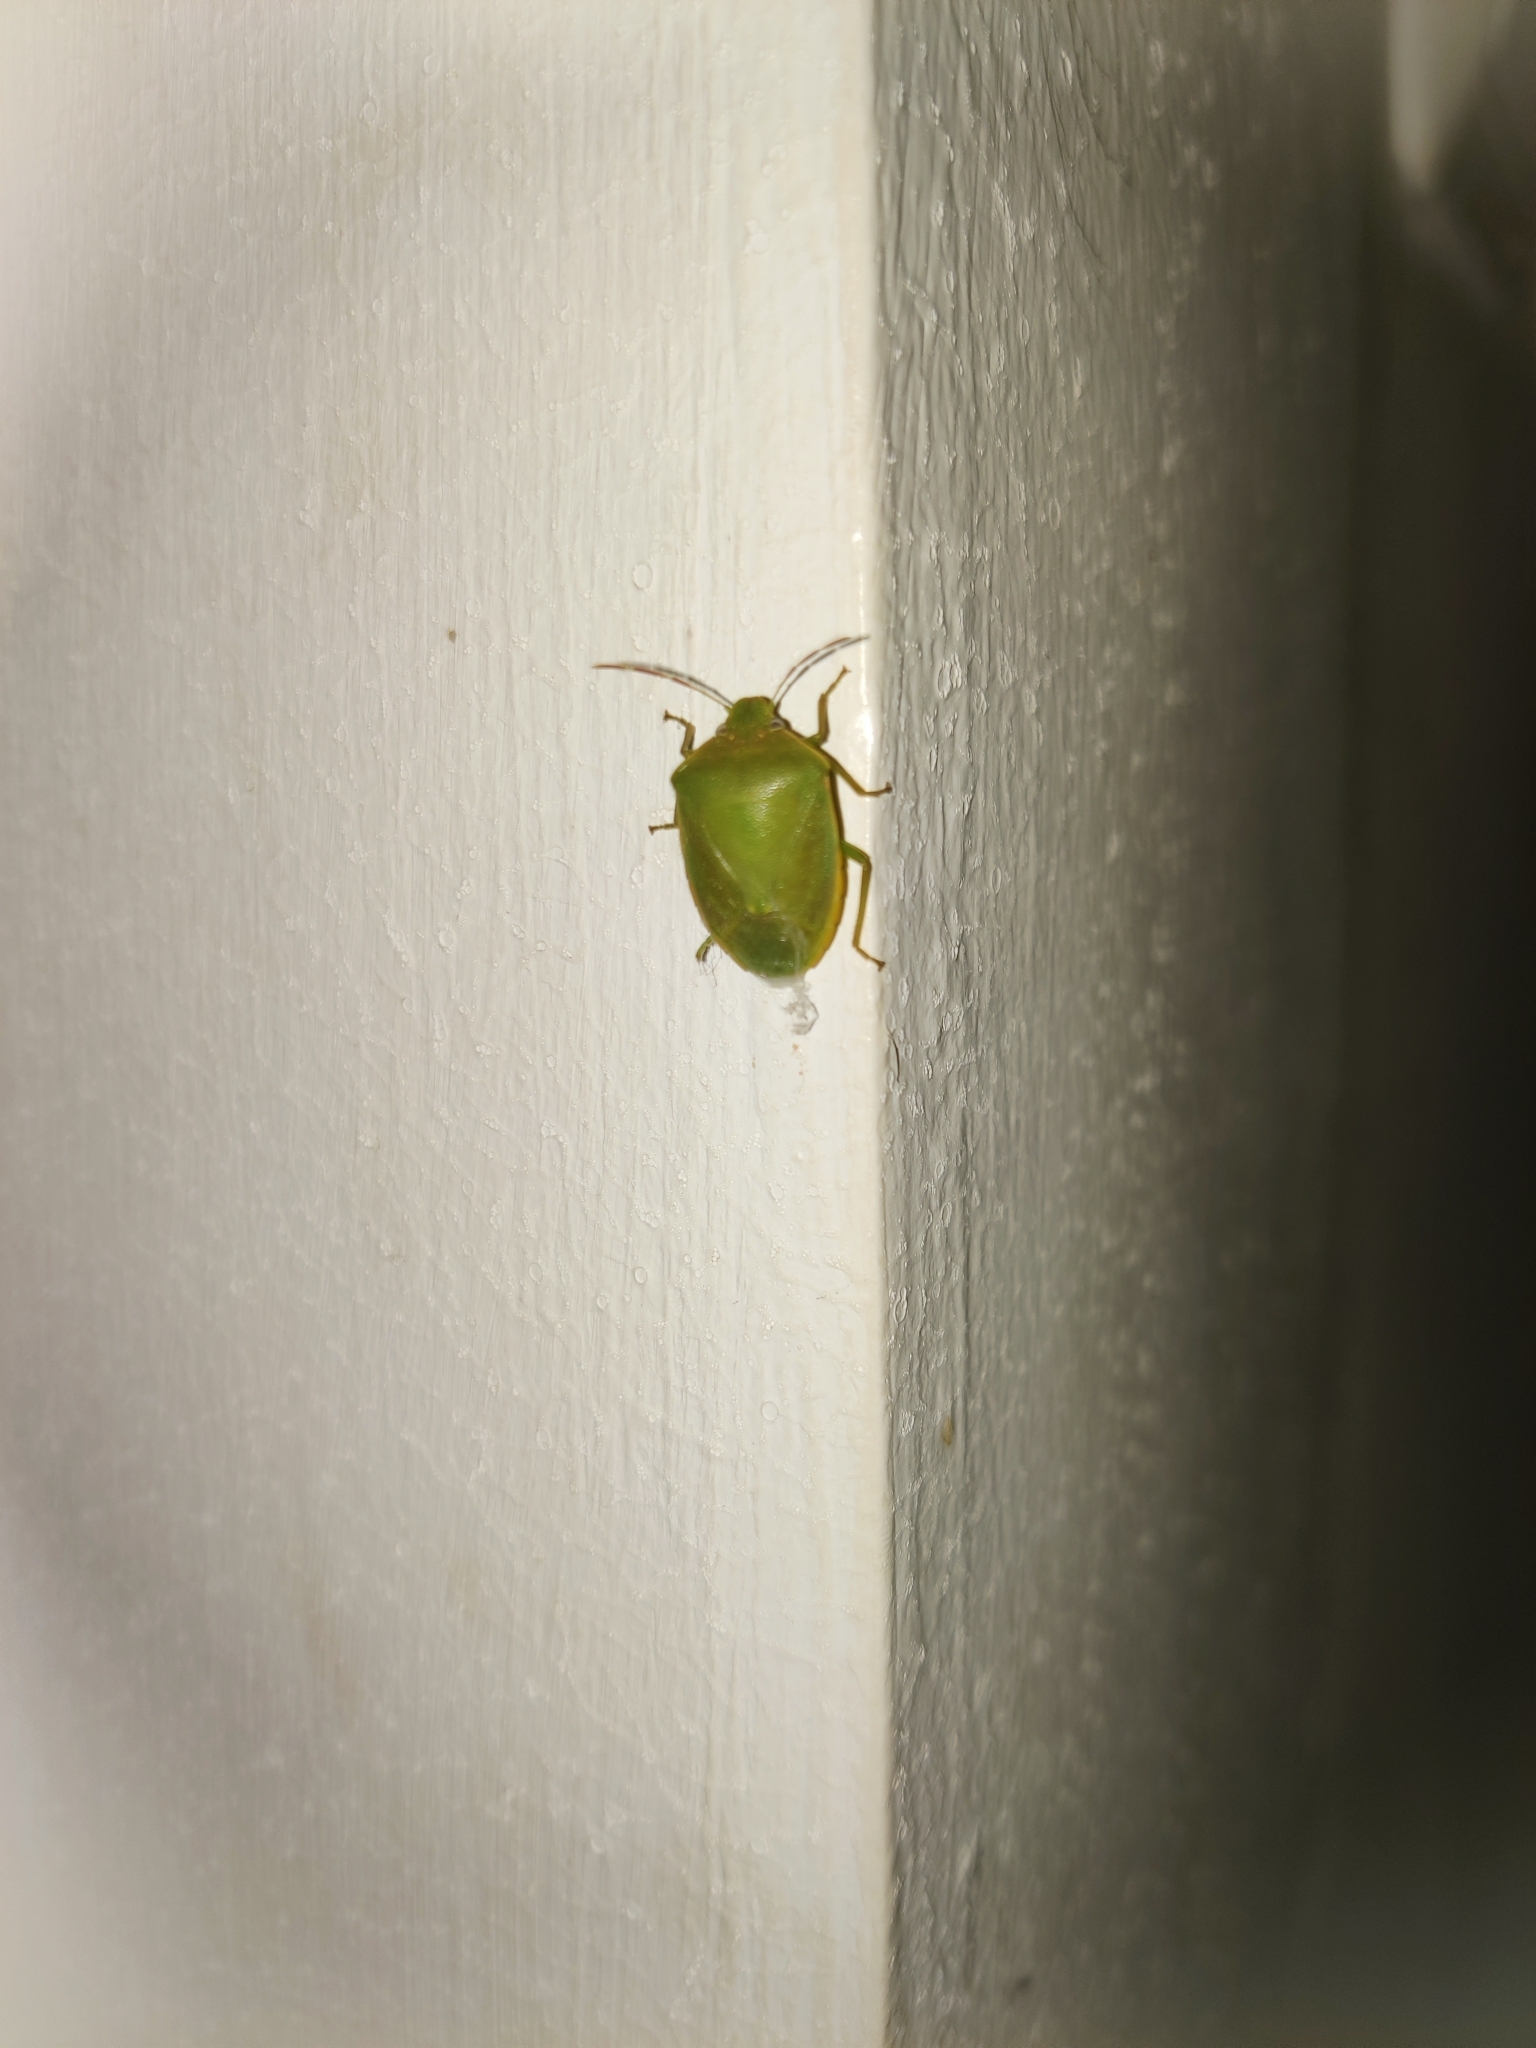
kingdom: Animalia
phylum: Arthropoda
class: Insecta
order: Hemiptera
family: Pentatomidae
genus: Acrosternum
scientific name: Acrosternum heegeri
